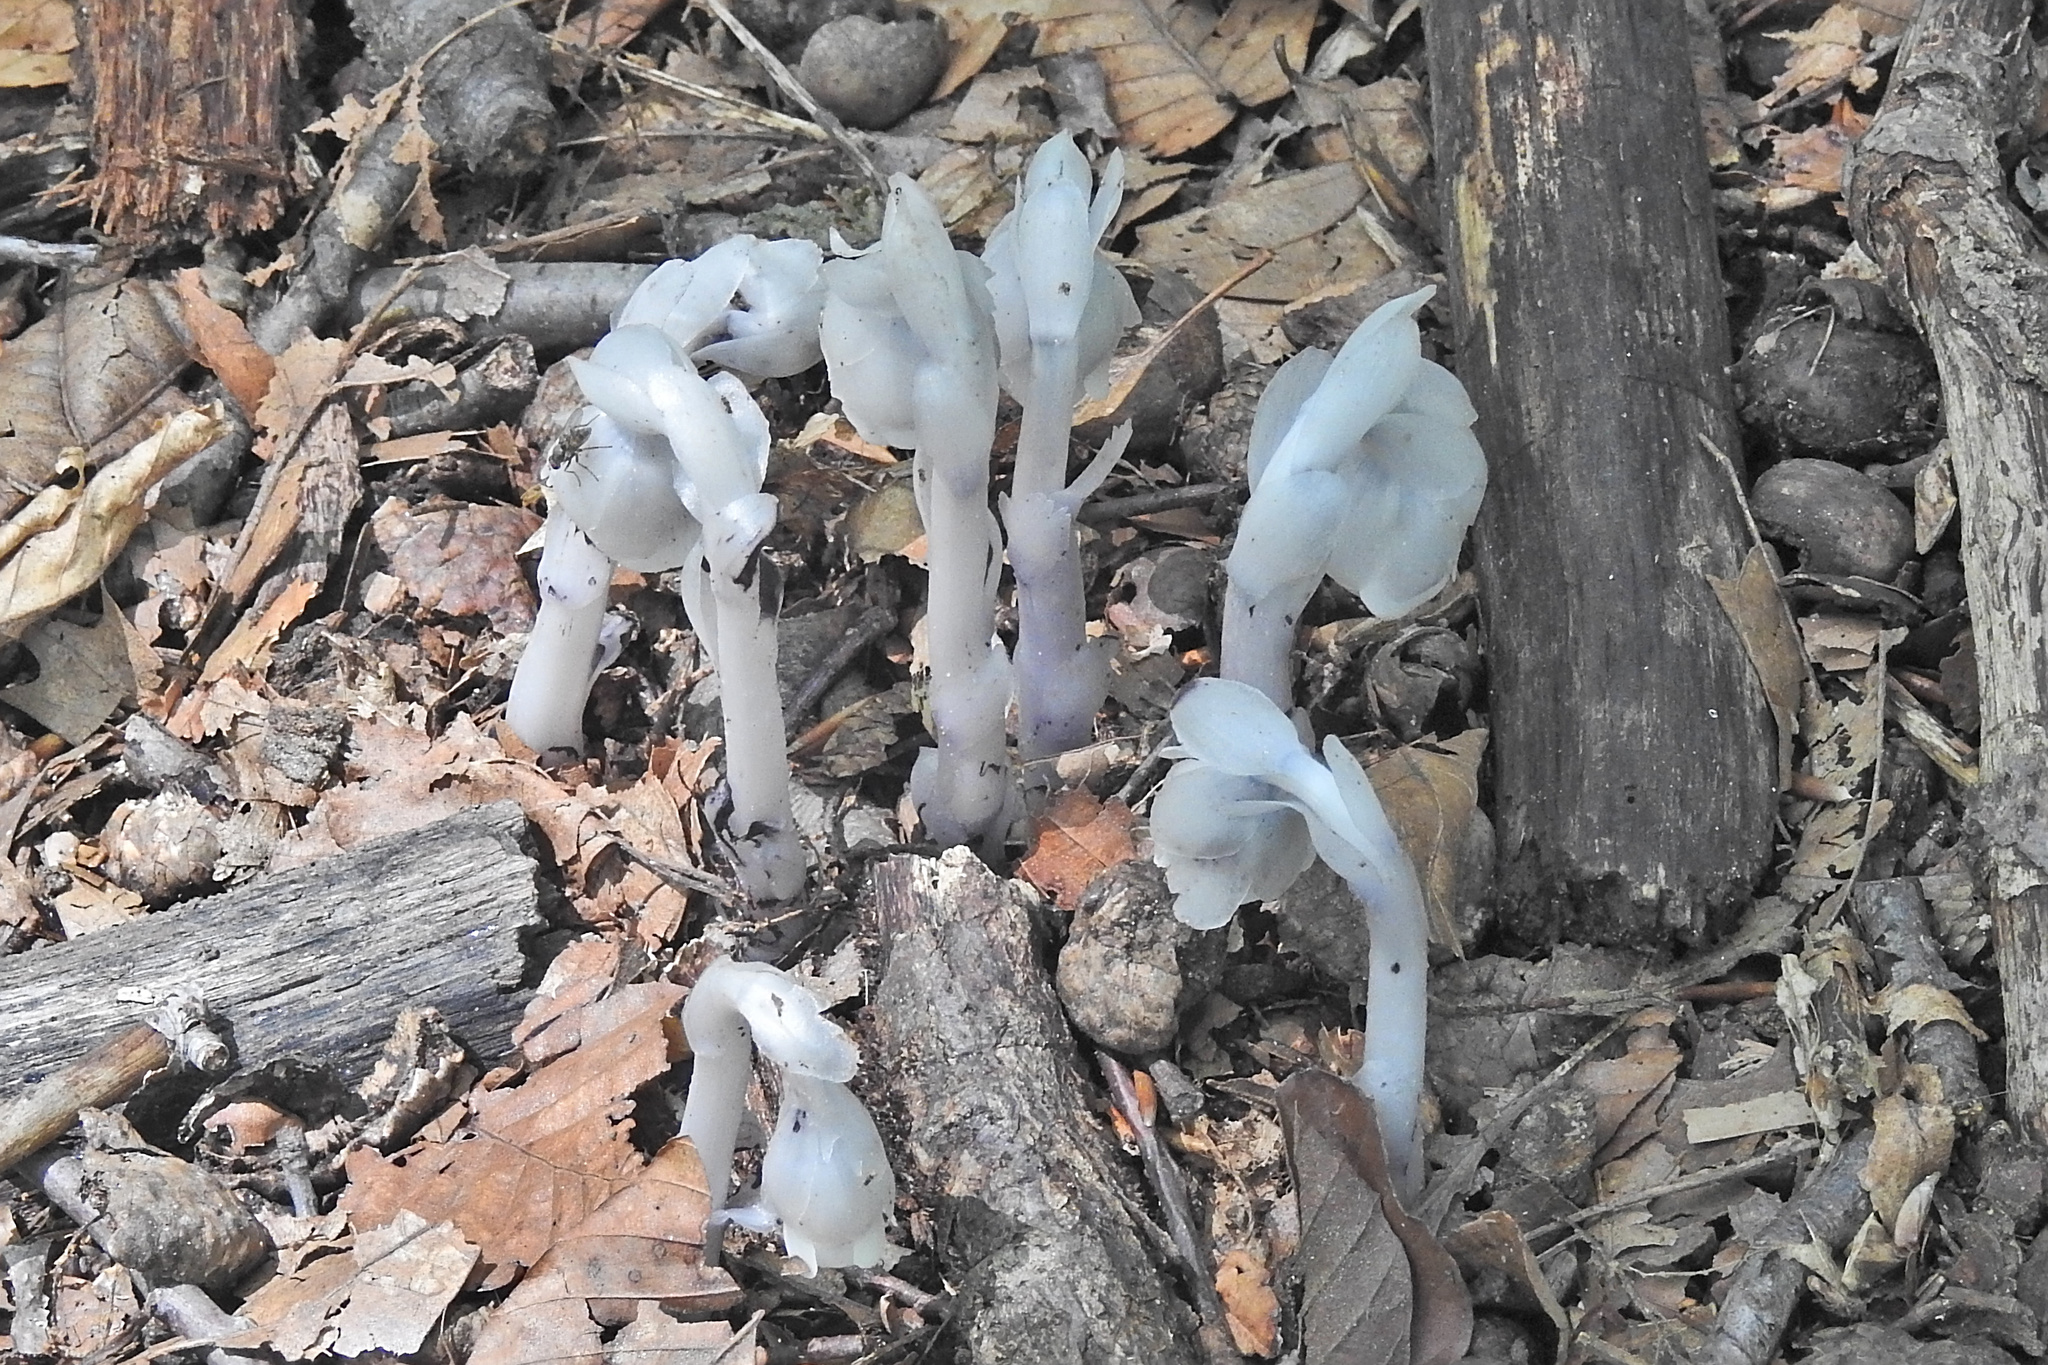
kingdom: Plantae
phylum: Tracheophyta
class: Magnoliopsida
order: Ericales
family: Ericaceae
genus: Monotropa
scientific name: Monotropa uniflora
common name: Convulsion root
